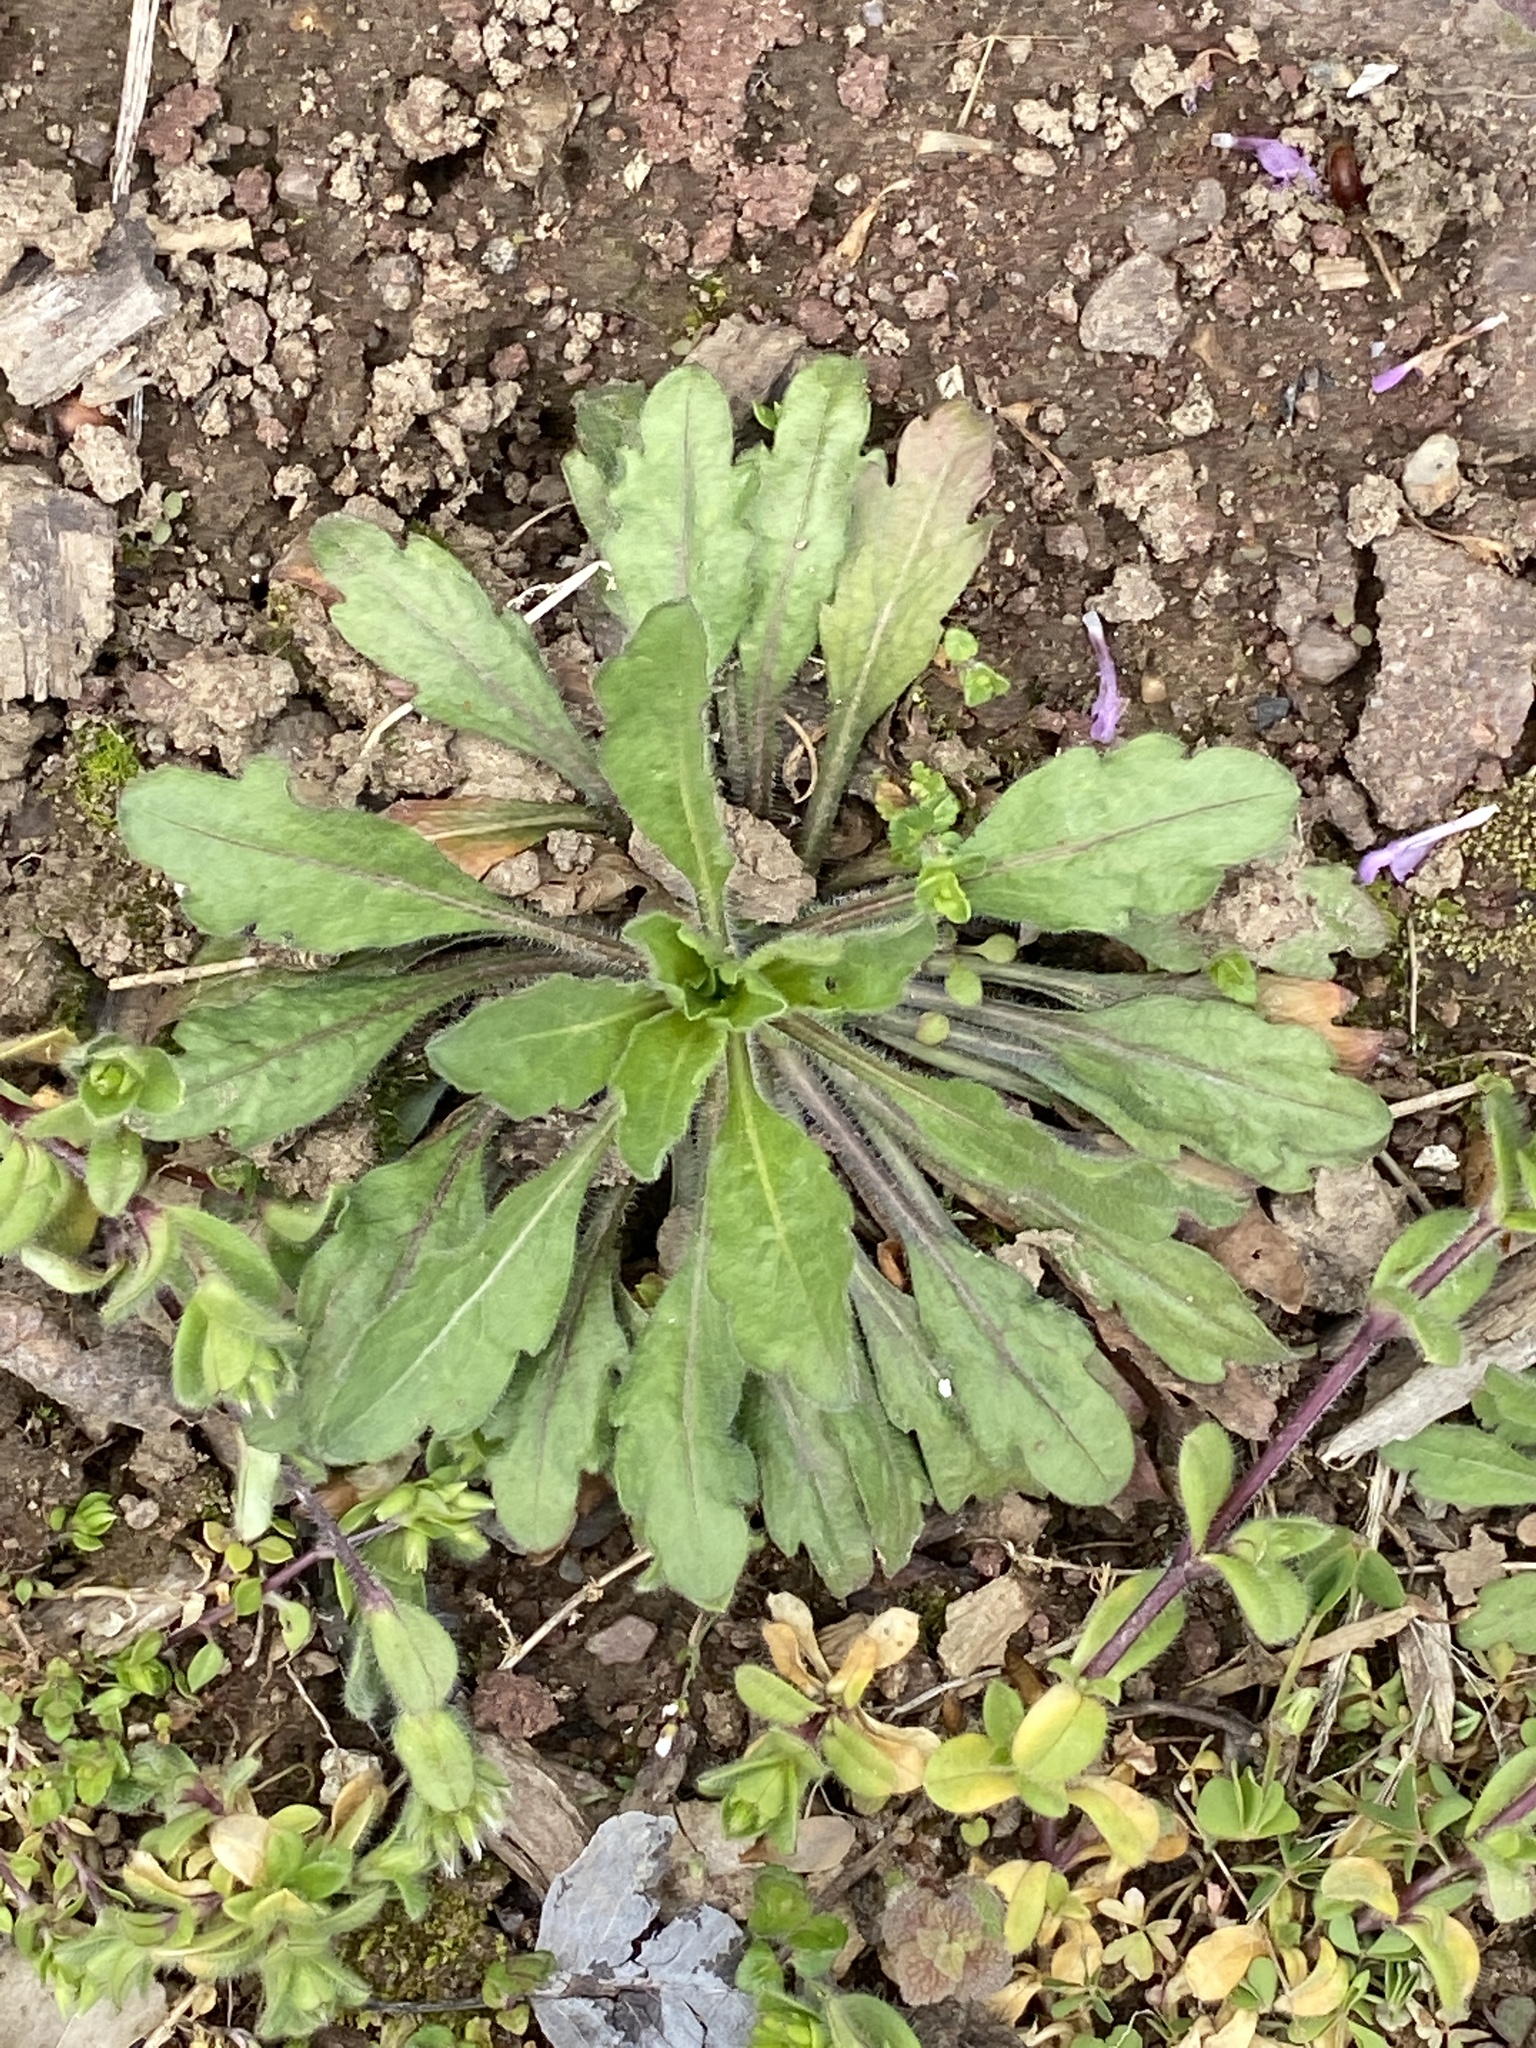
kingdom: Plantae
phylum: Tracheophyta
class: Magnoliopsida
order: Asterales
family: Asteraceae
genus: Erigeron
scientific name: Erigeron canadensis
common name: Canadian fleabane
